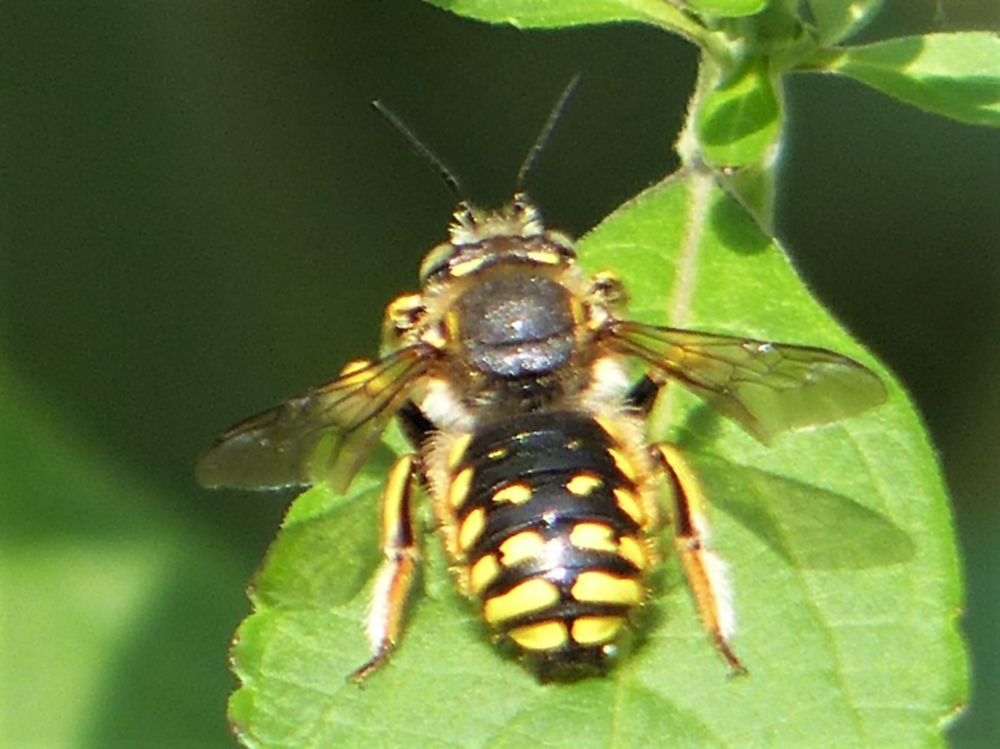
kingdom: Animalia
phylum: Arthropoda
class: Insecta
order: Hymenoptera
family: Megachilidae
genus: Anthidium
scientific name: Anthidium manicatum
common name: Wool carder bee
